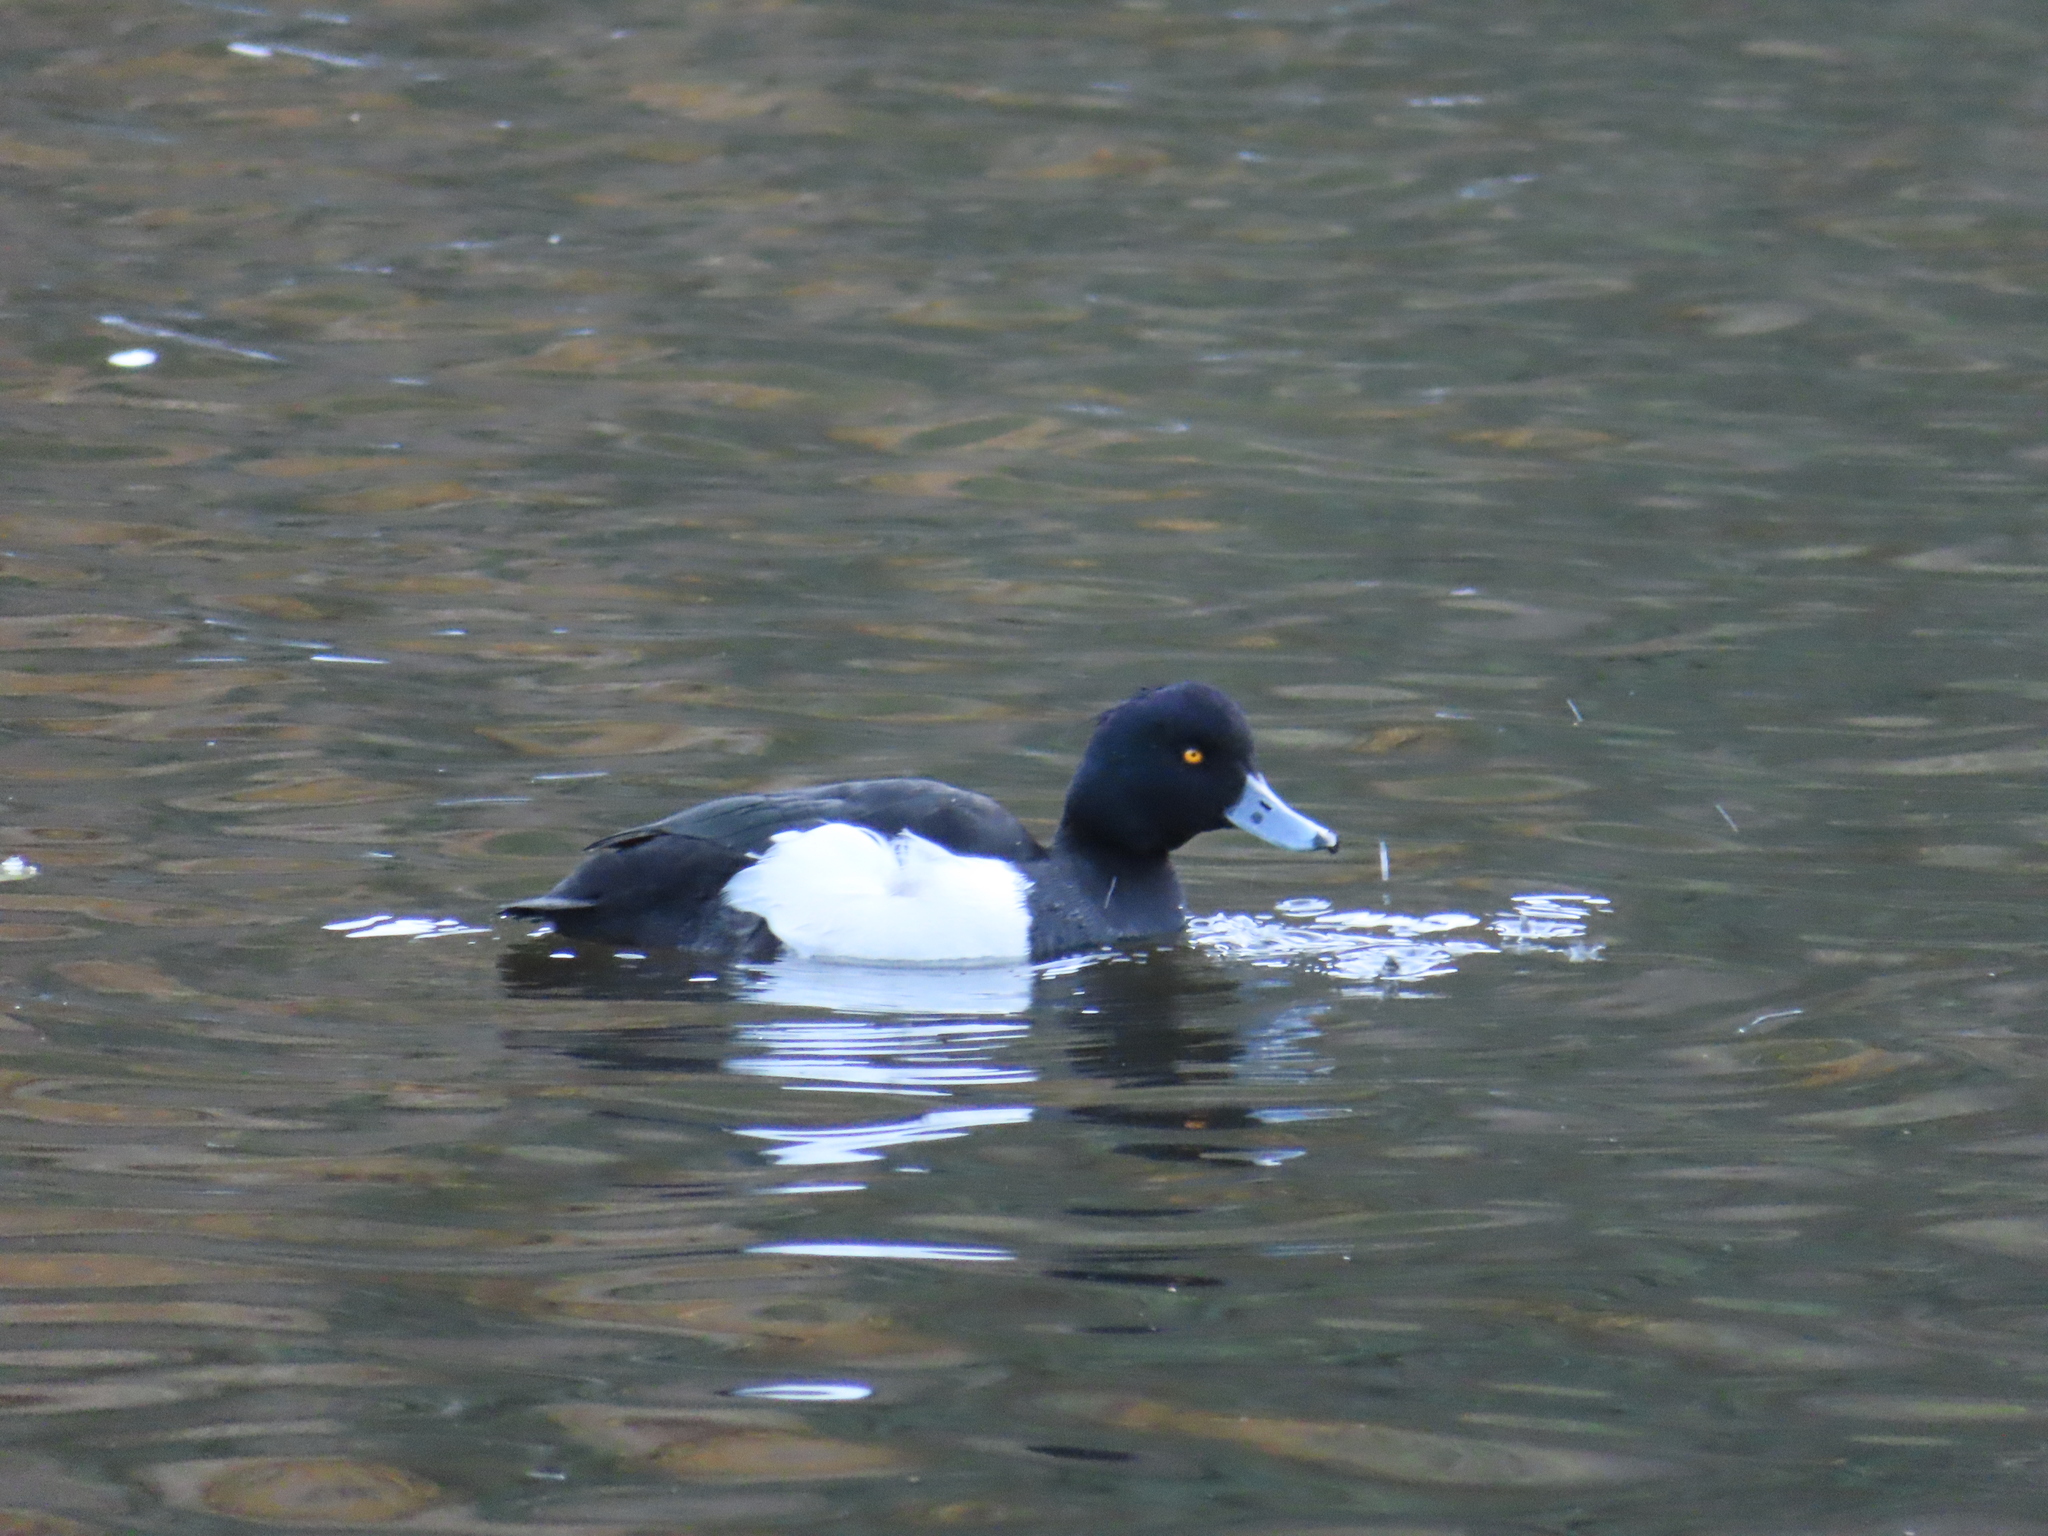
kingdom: Animalia
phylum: Chordata
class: Aves
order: Anseriformes
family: Anatidae
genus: Aythya
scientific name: Aythya fuligula
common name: Tufted duck
